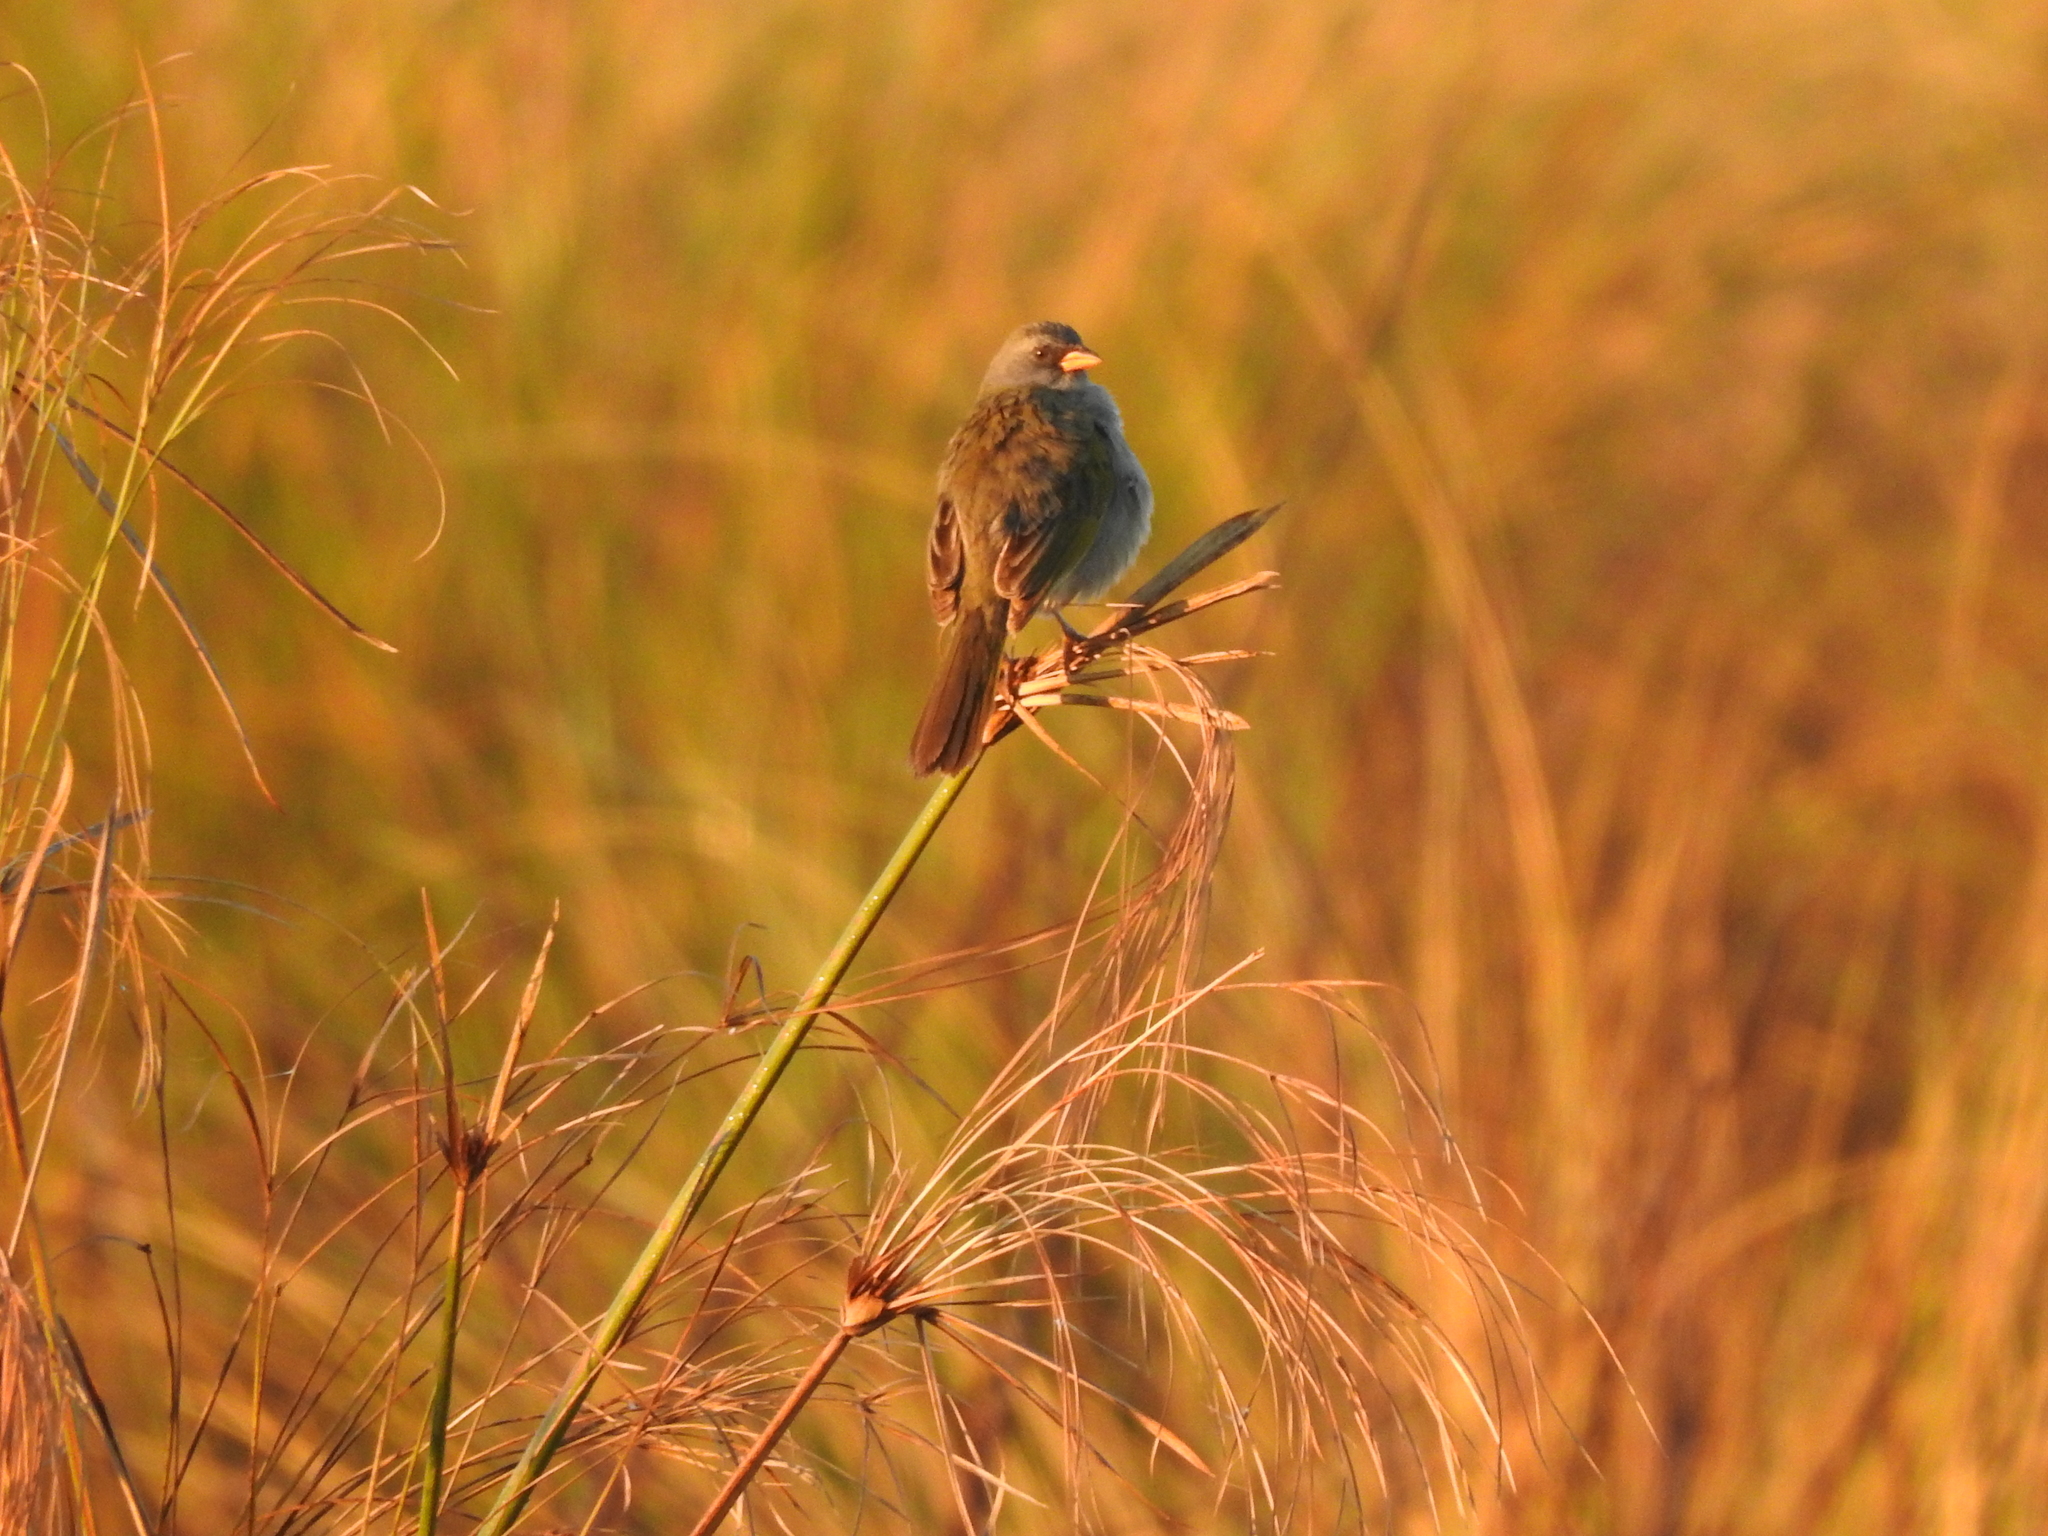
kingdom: Animalia
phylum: Chordata
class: Aves
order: Passeriformes
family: Thraupidae
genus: Embernagra
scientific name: Embernagra platensis
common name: Pampa finch
